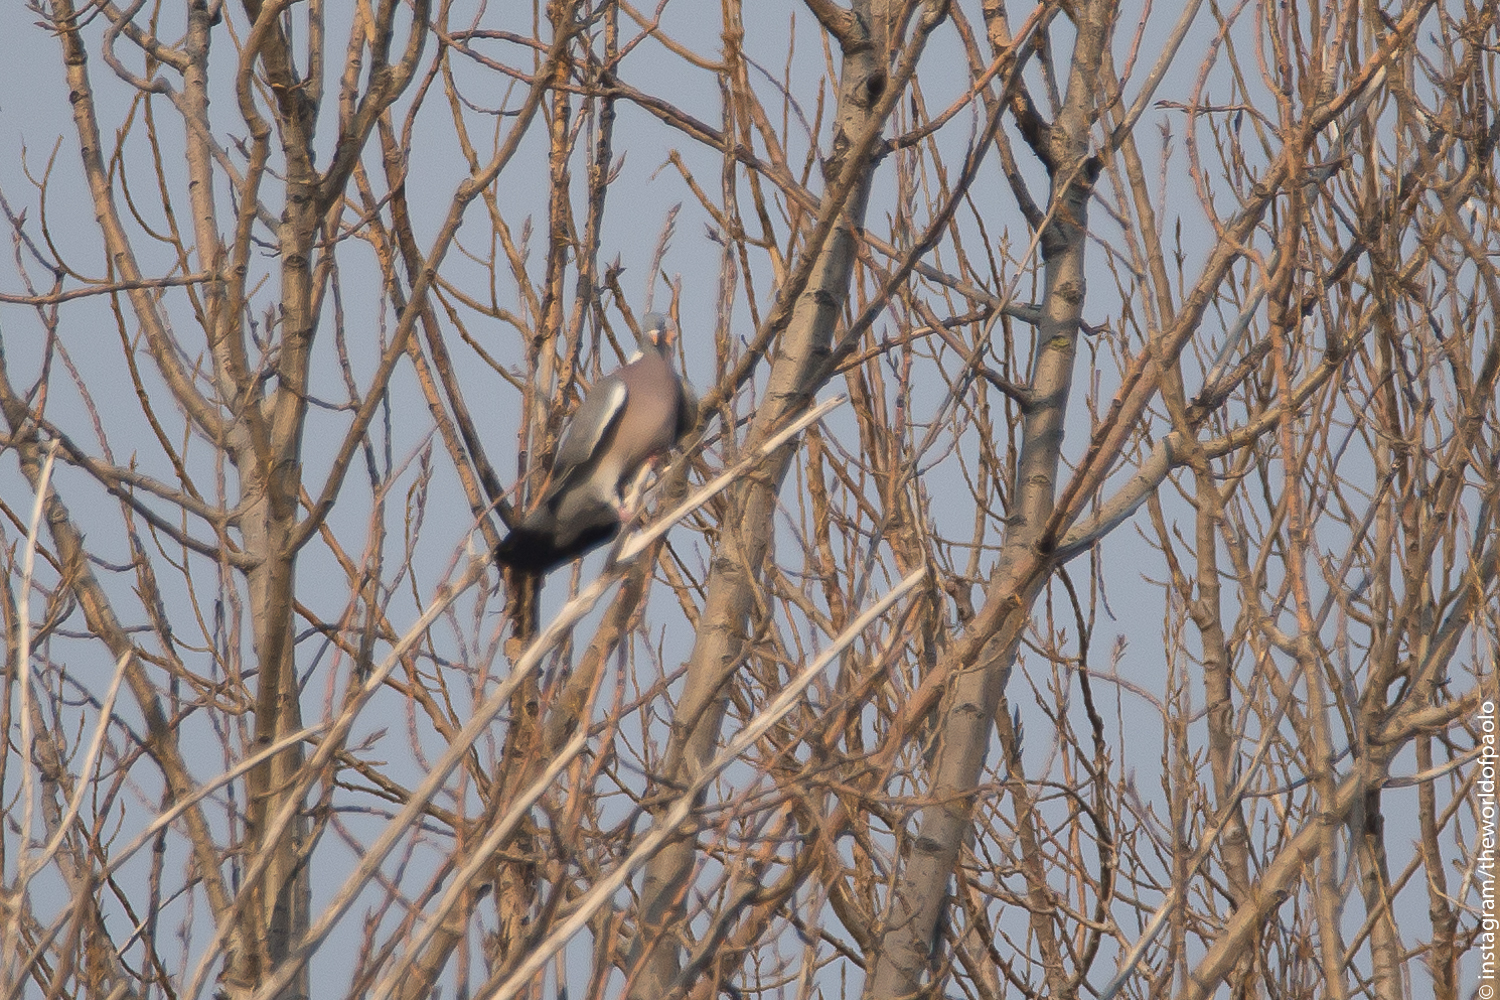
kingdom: Animalia
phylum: Chordata
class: Aves
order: Columbiformes
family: Columbidae
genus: Columba
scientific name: Columba palumbus
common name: Common wood pigeon
